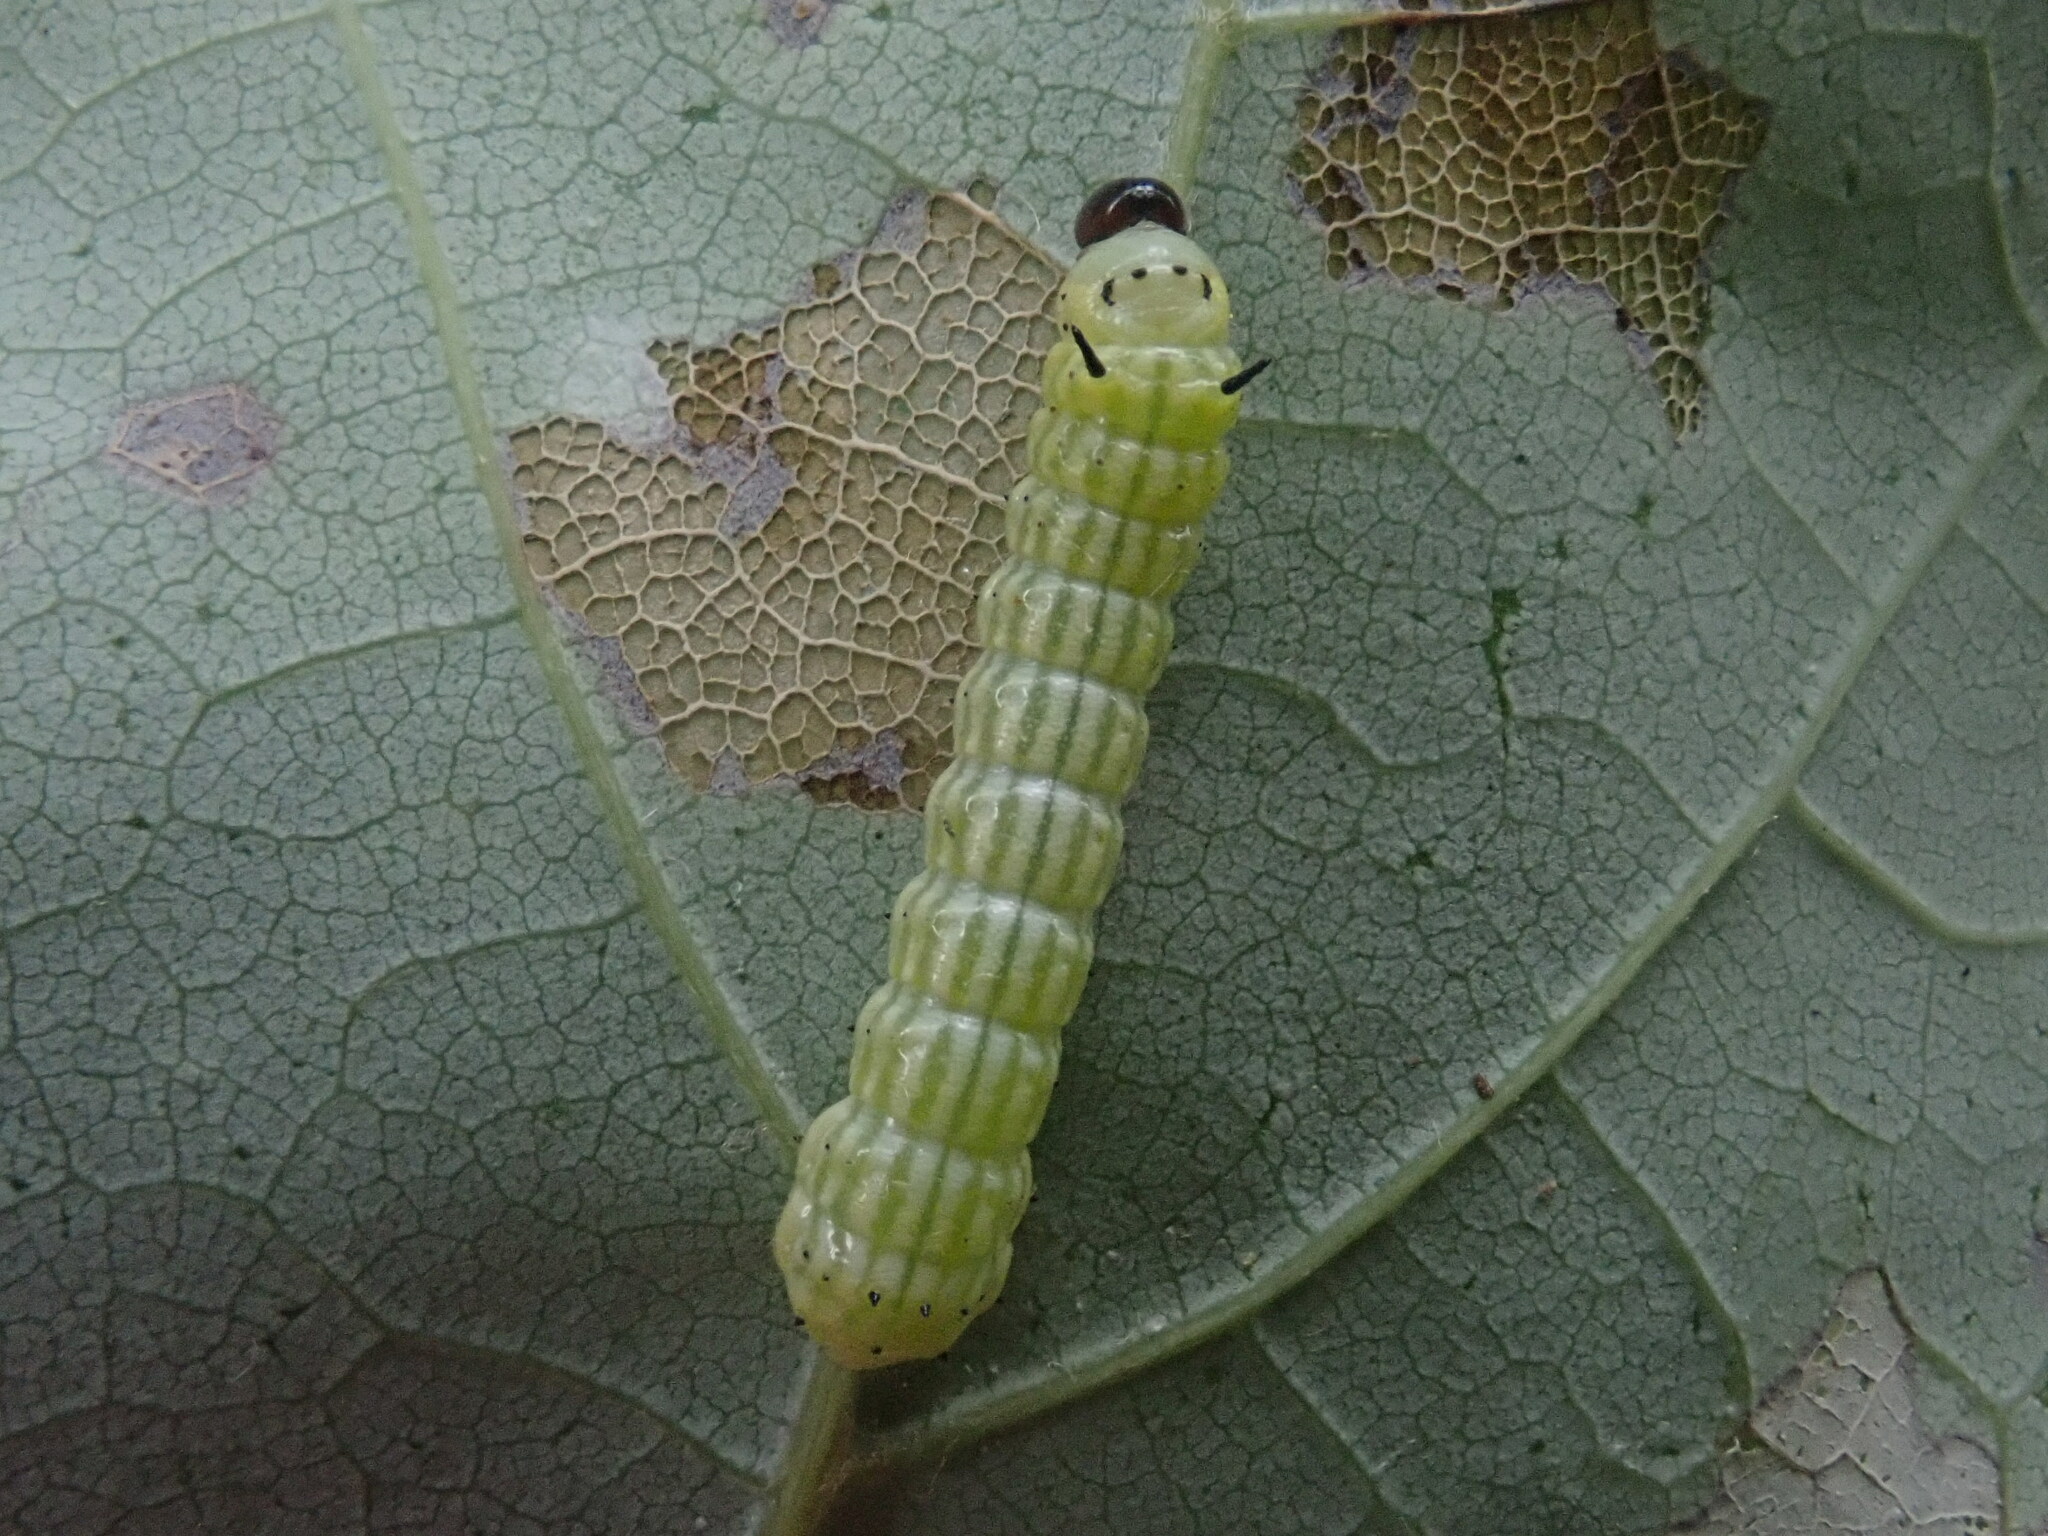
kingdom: Animalia
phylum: Arthropoda
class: Insecta
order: Lepidoptera
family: Saturniidae
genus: Dryocampa
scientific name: Dryocampa rubicunda
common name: Rosy maple moth
